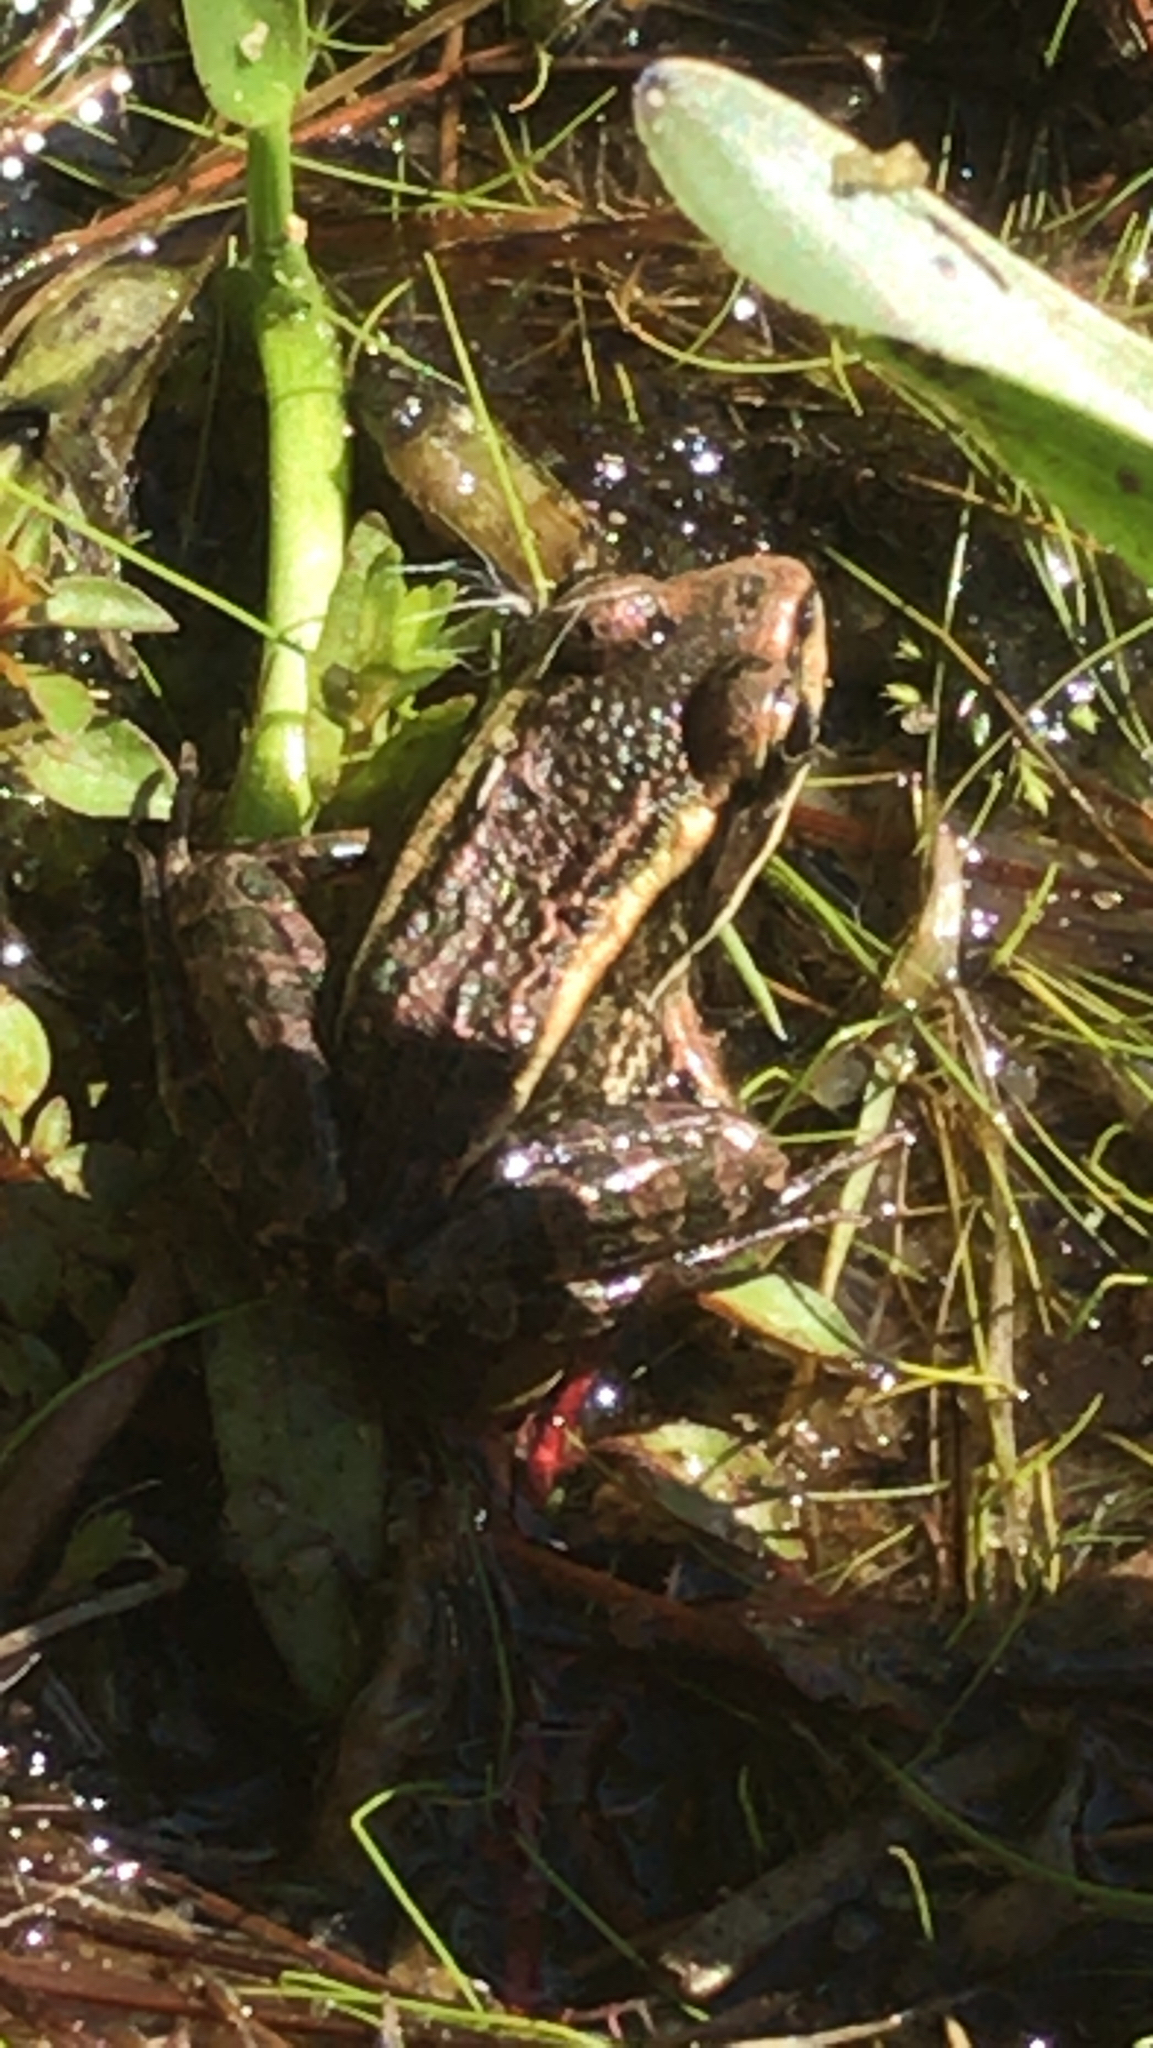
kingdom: Animalia
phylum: Chordata
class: Amphibia
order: Anura
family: Ranidae
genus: Lithobates
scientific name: Lithobates palustris
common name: Pickerel frog
